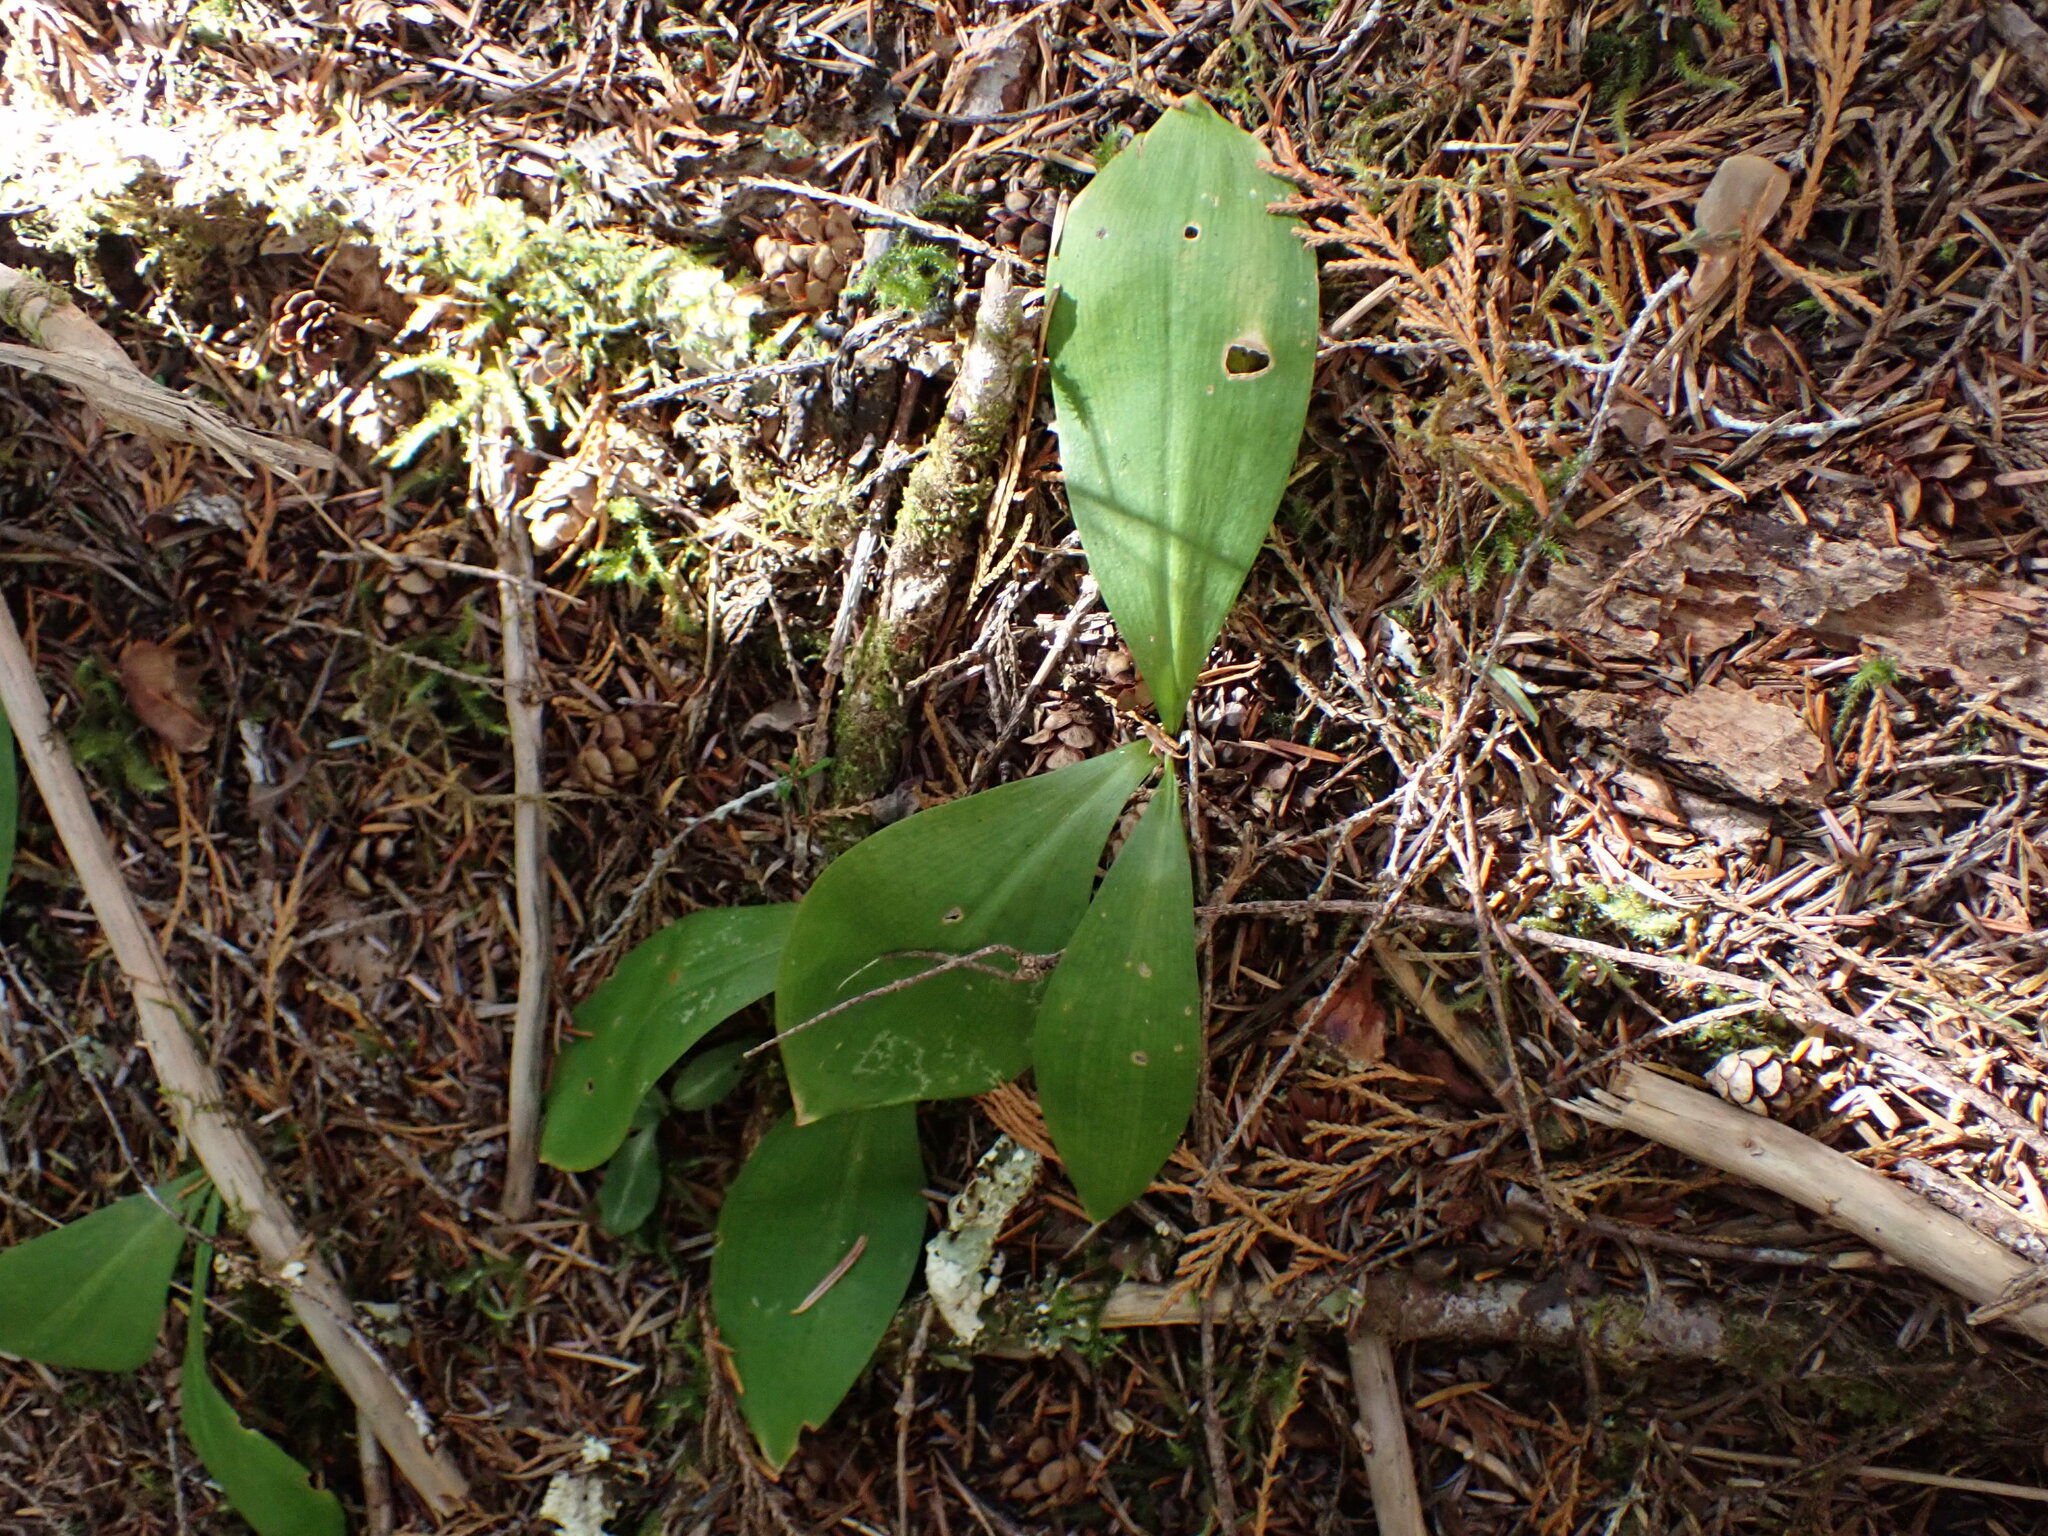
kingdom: Plantae
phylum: Tracheophyta
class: Liliopsida
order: Liliales
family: Liliaceae
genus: Clintonia
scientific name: Clintonia uniflora
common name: Queen's cup
